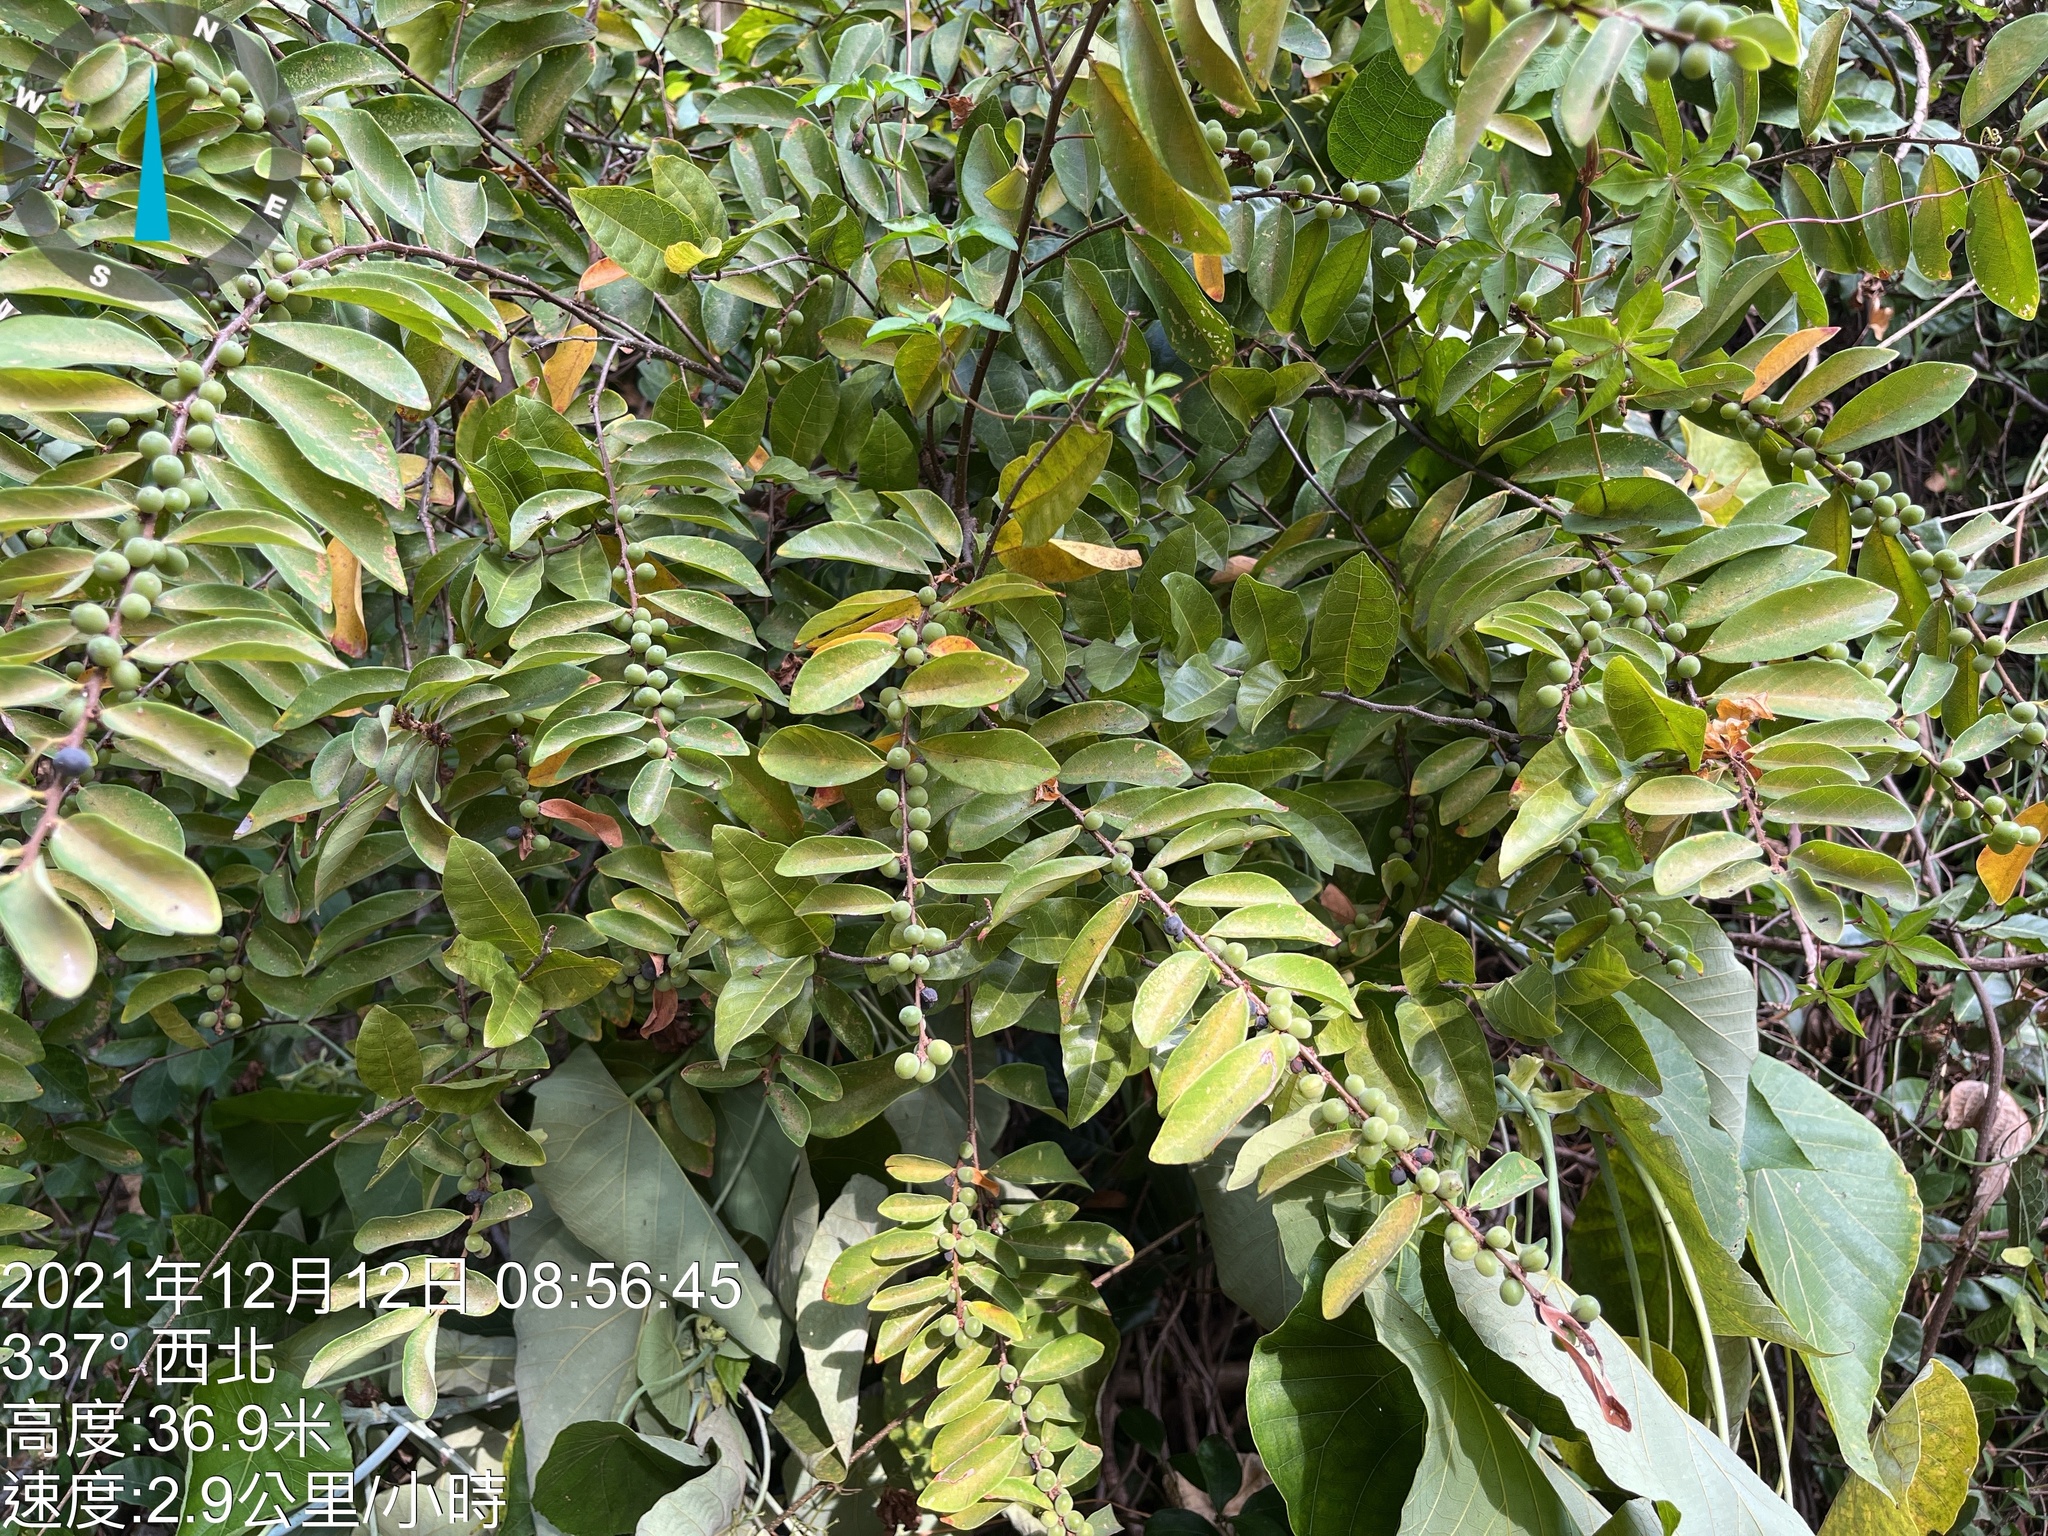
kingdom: Plantae
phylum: Tracheophyta
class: Magnoliopsida
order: Malpighiales
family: Phyllanthaceae
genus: Bridelia
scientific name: Bridelia tomentosa
